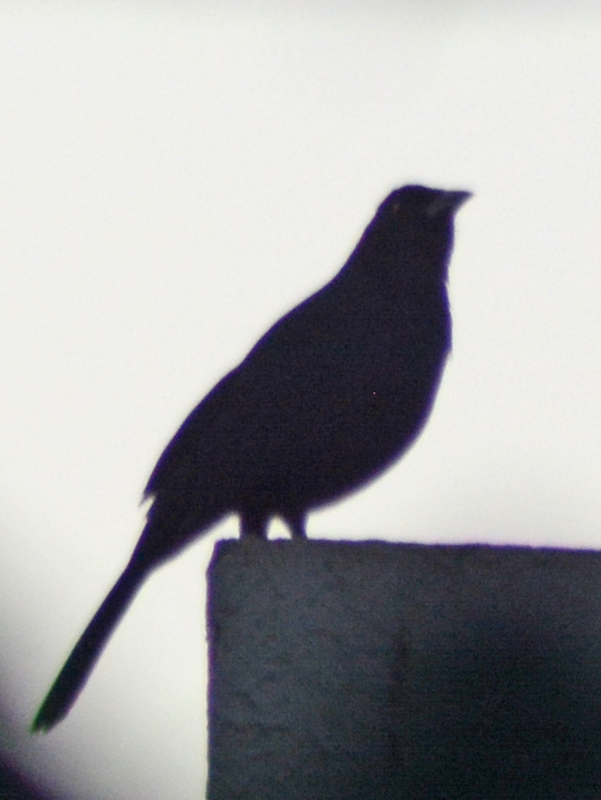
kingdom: Animalia
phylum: Chordata
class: Aves
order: Passeriformes
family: Icteridae
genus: Dives
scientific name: Dives dives
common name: Melodious blackbird
